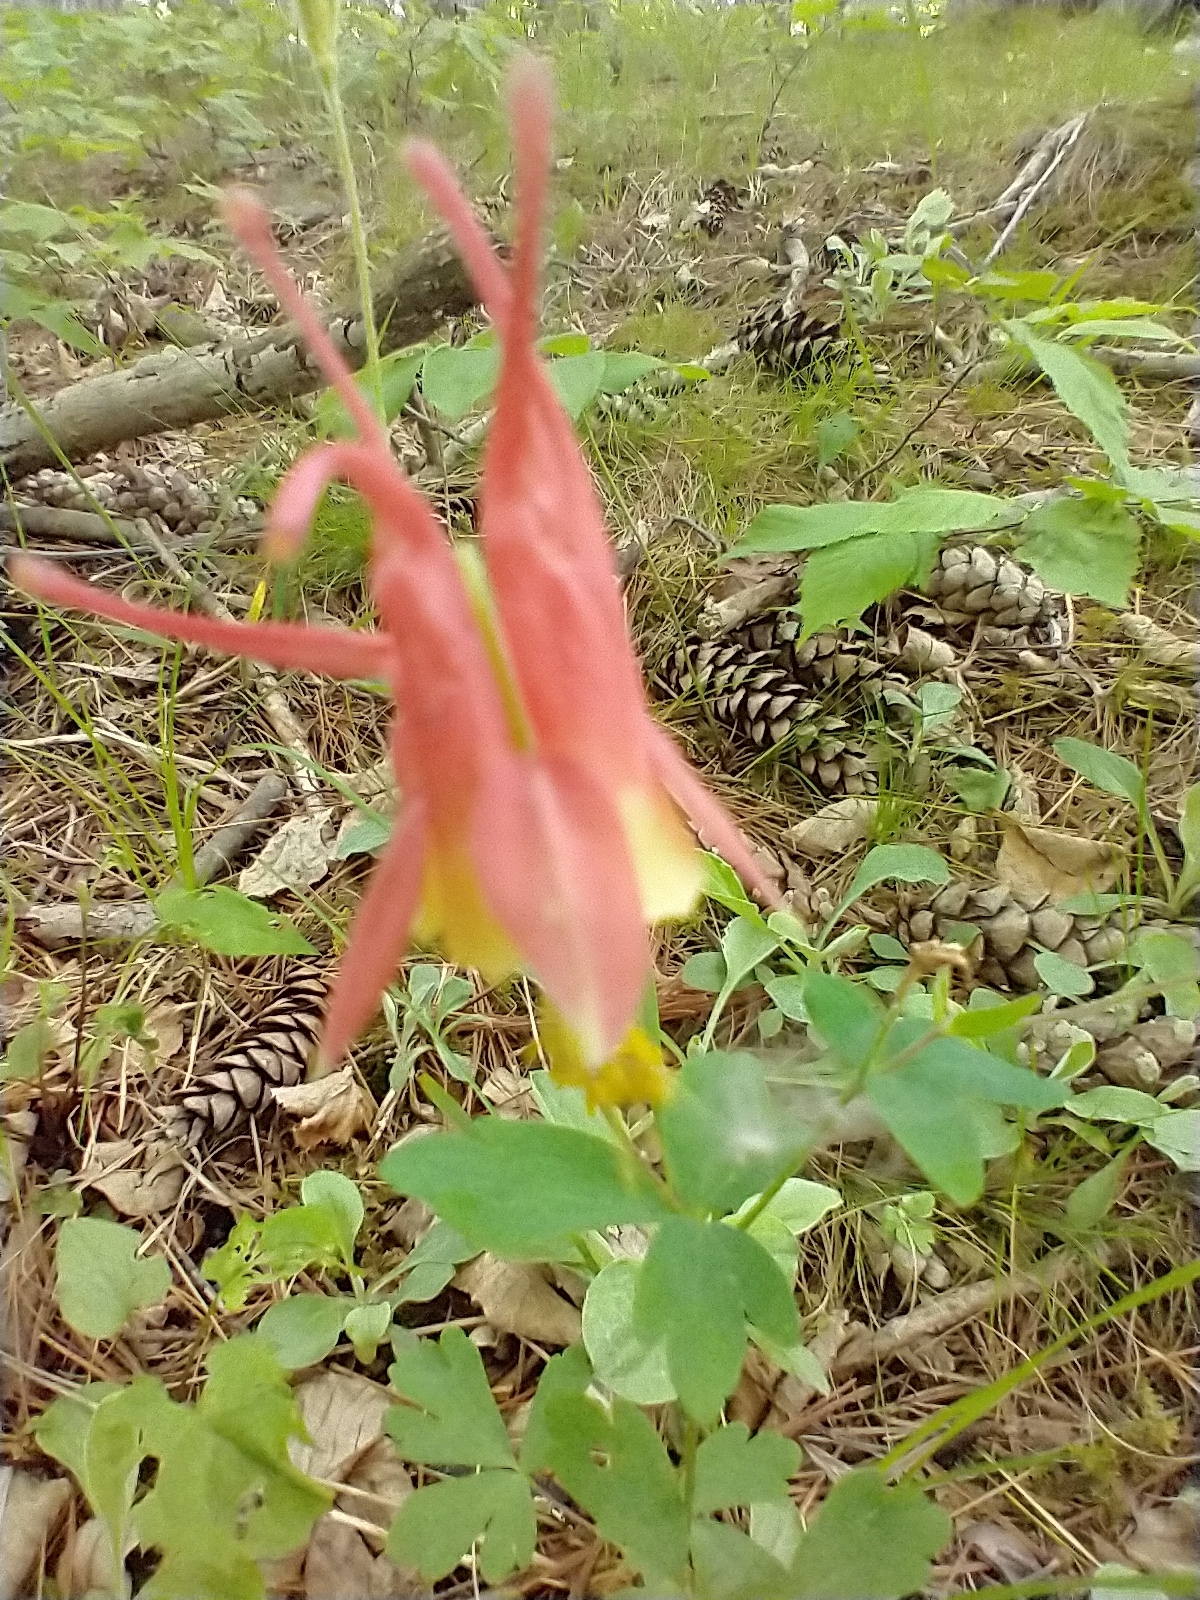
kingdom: Plantae
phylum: Tracheophyta
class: Magnoliopsida
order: Ranunculales
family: Ranunculaceae
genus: Aquilegia
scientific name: Aquilegia canadensis
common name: American columbine
